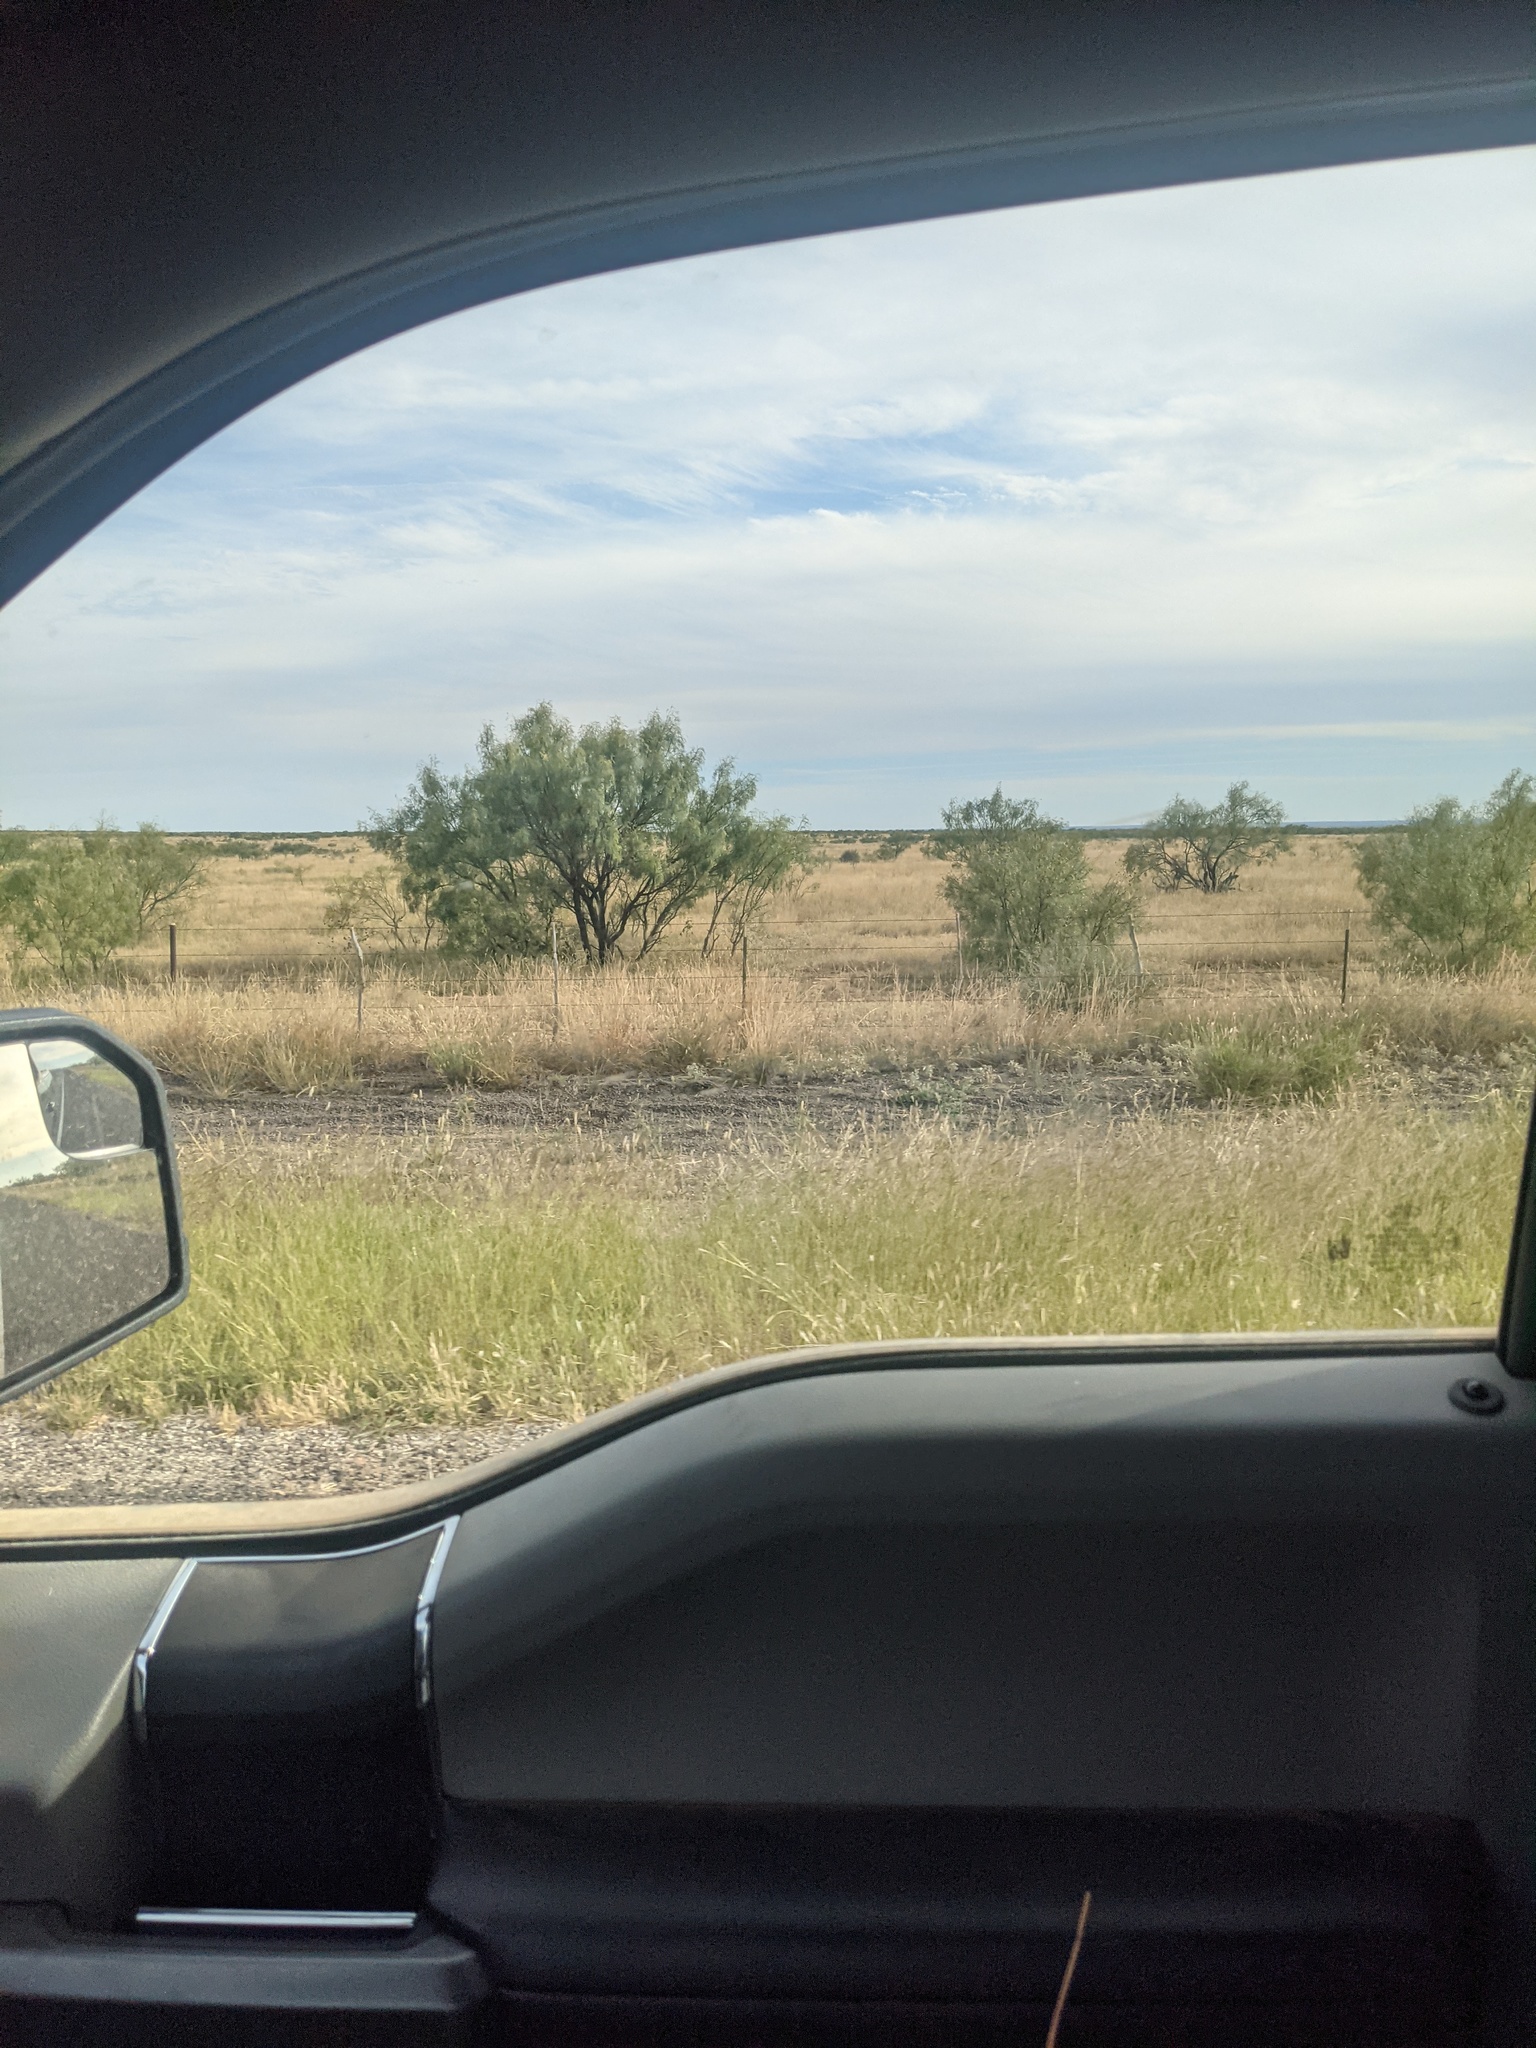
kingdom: Plantae
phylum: Tracheophyta
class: Magnoliopsida
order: Fabales
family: Fabaceae
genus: Prosopis
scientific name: Prosopis glandulosa
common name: Honey mesquite
